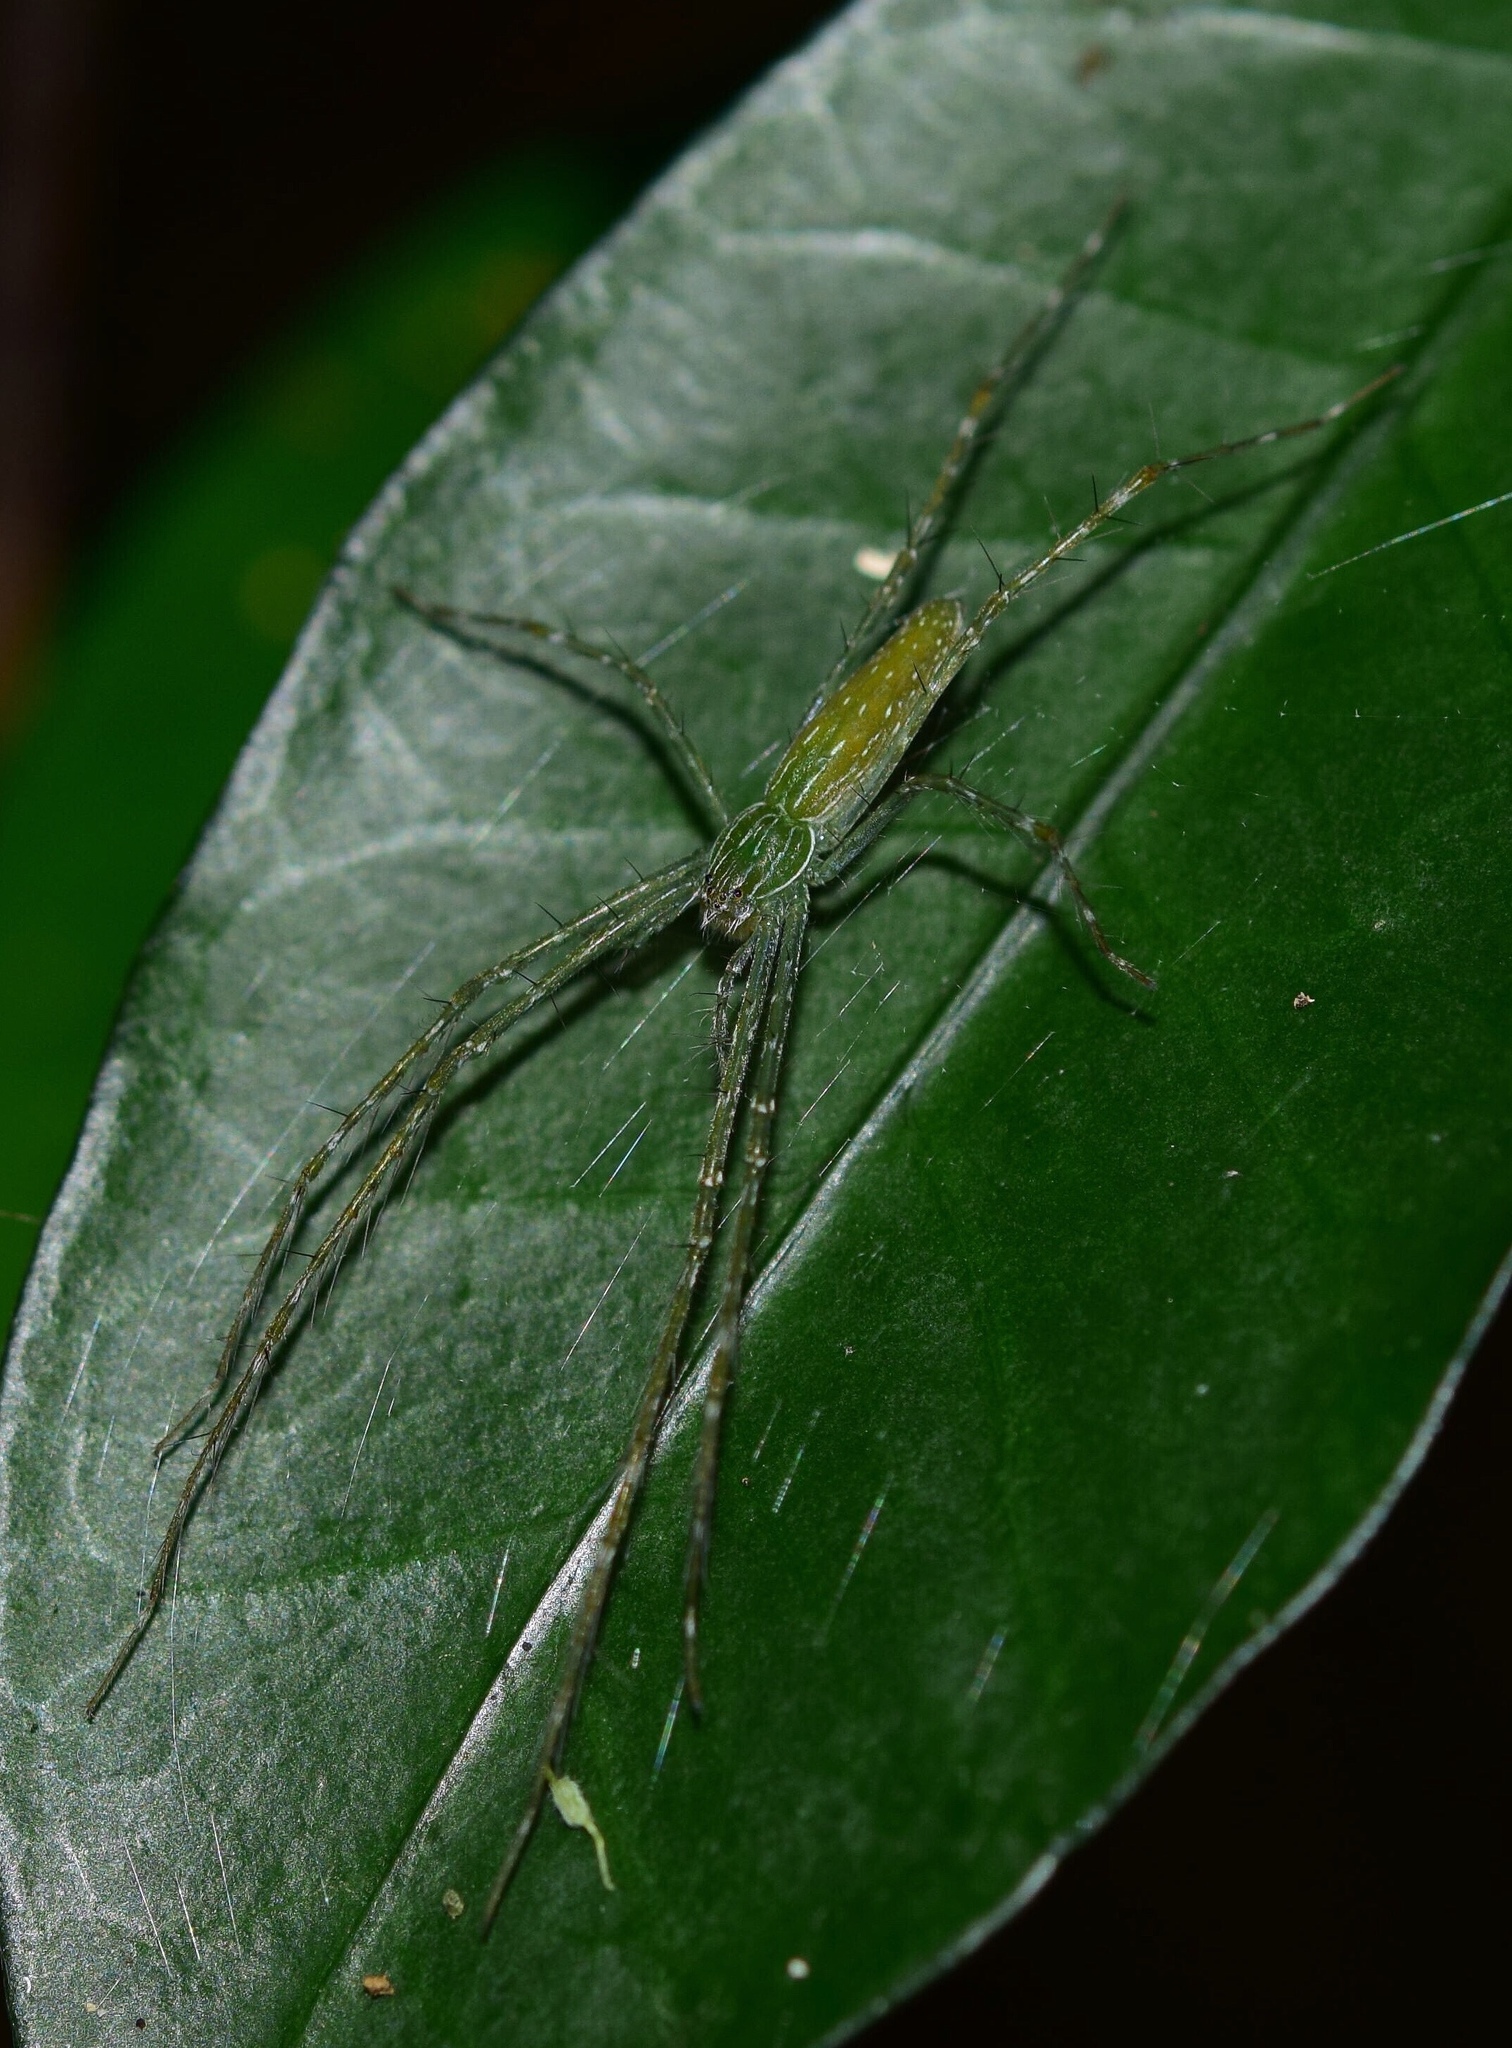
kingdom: Animalia
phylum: Arthropoda
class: Arachnida
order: Araneae
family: Pisauridae
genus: Hygropoda
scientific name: Hygropoda tangana
